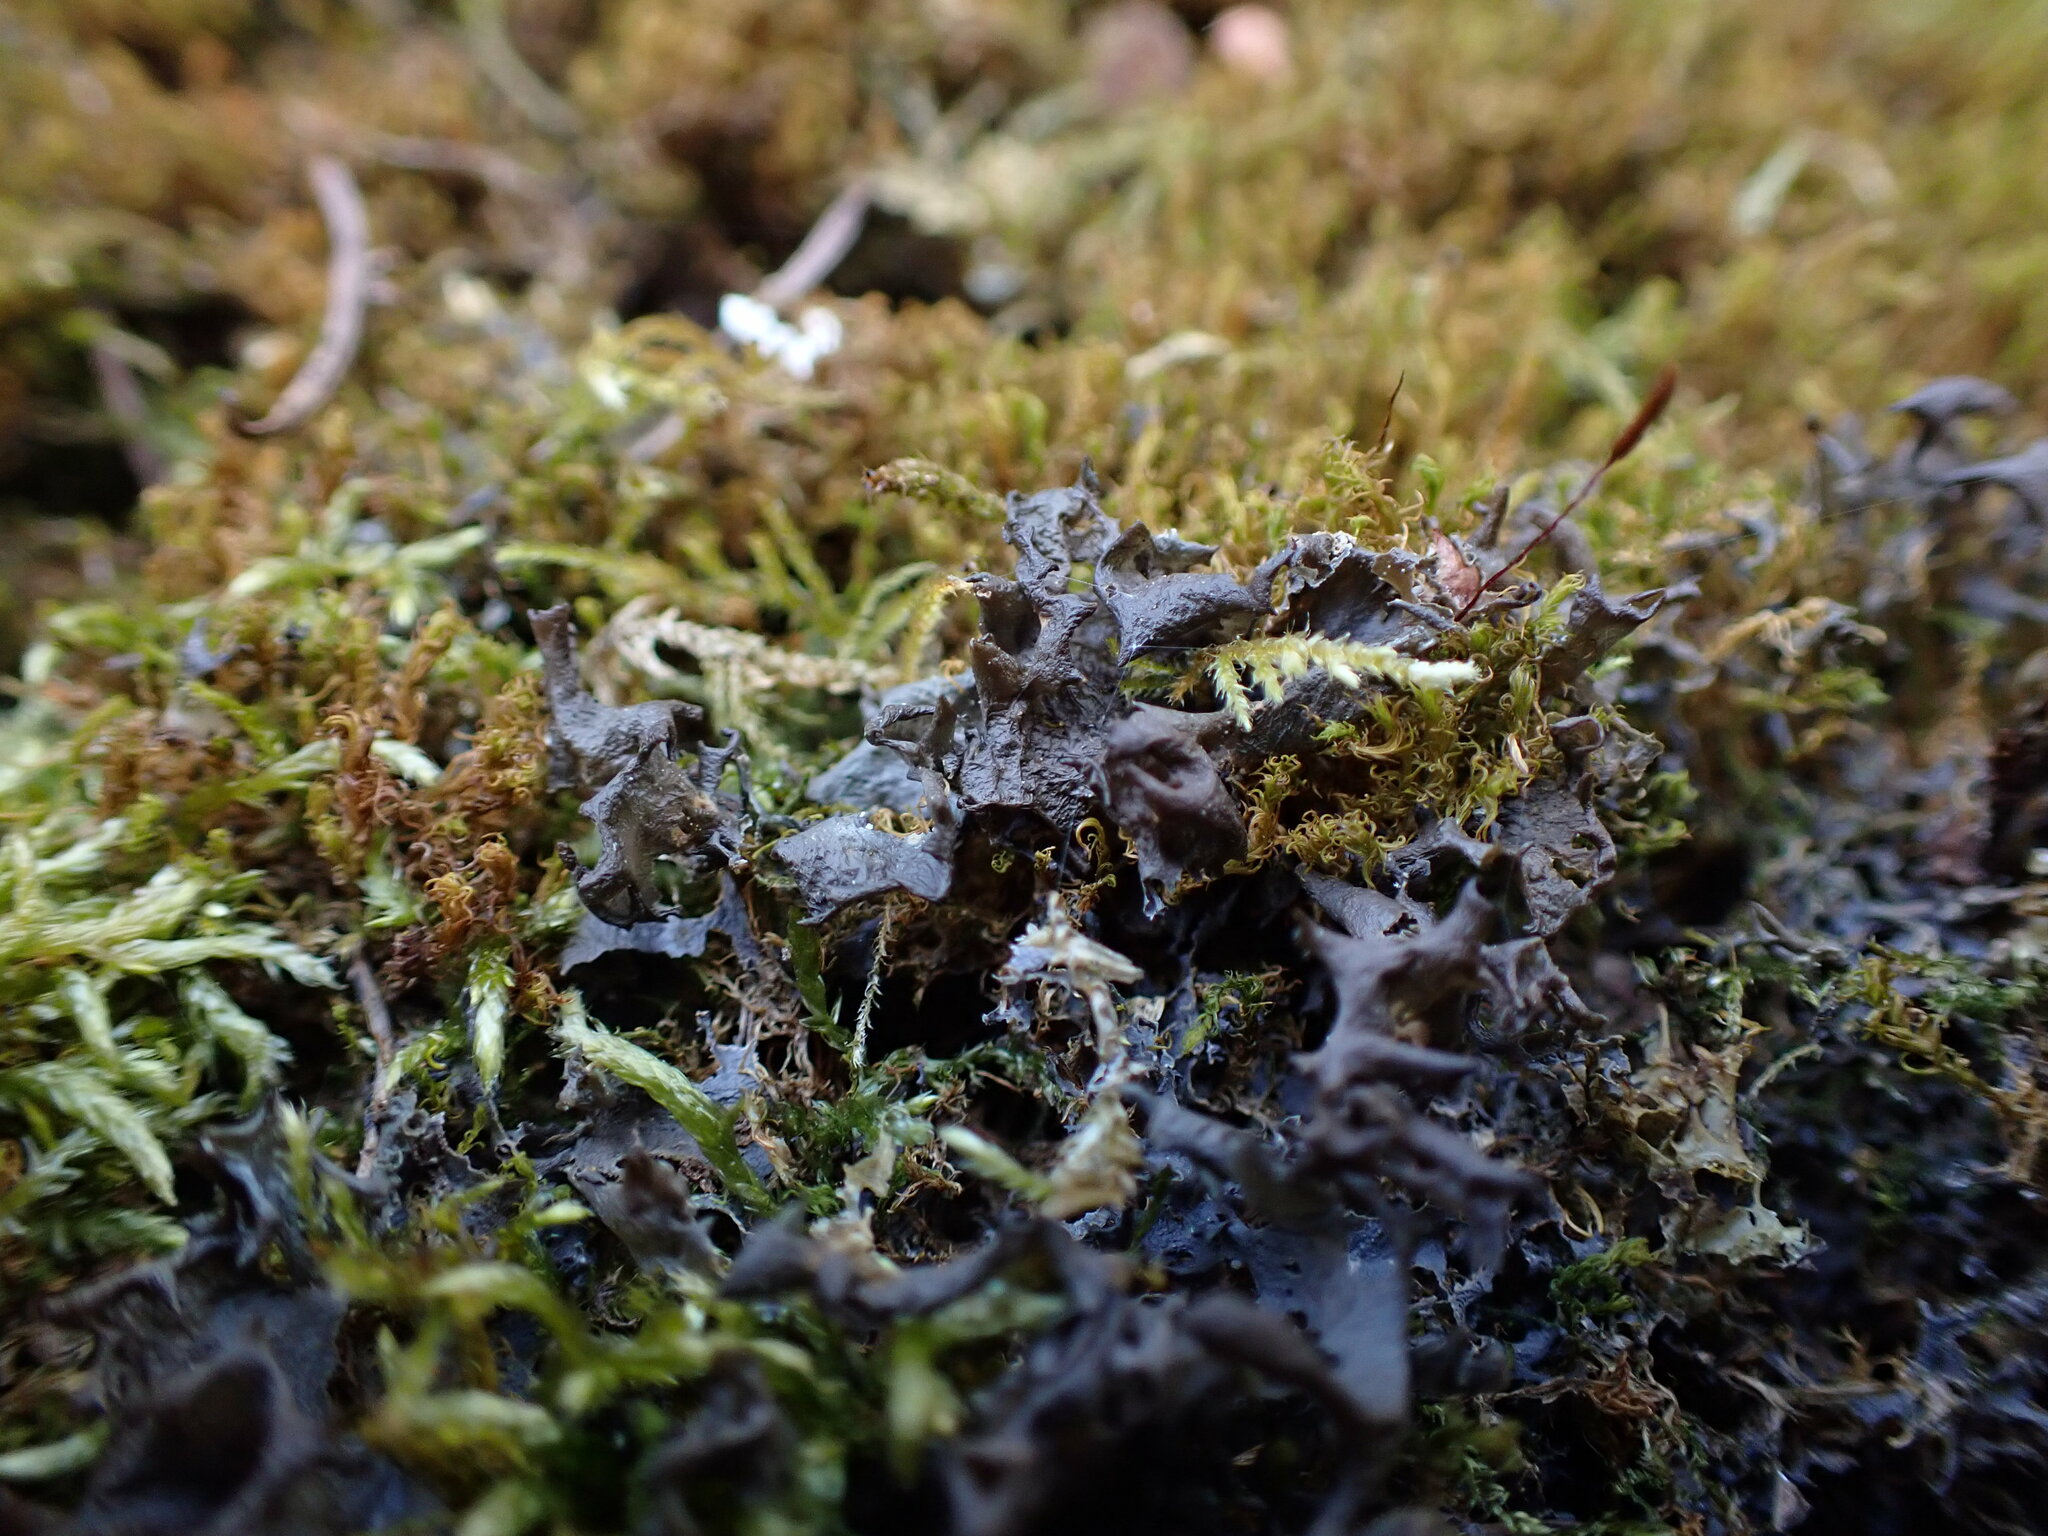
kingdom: Fungi
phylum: Ascomycota
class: Lecanoromycetes
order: Peltigerales
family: Collemataceae
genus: Scytinium
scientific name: Scytinium palmatum
